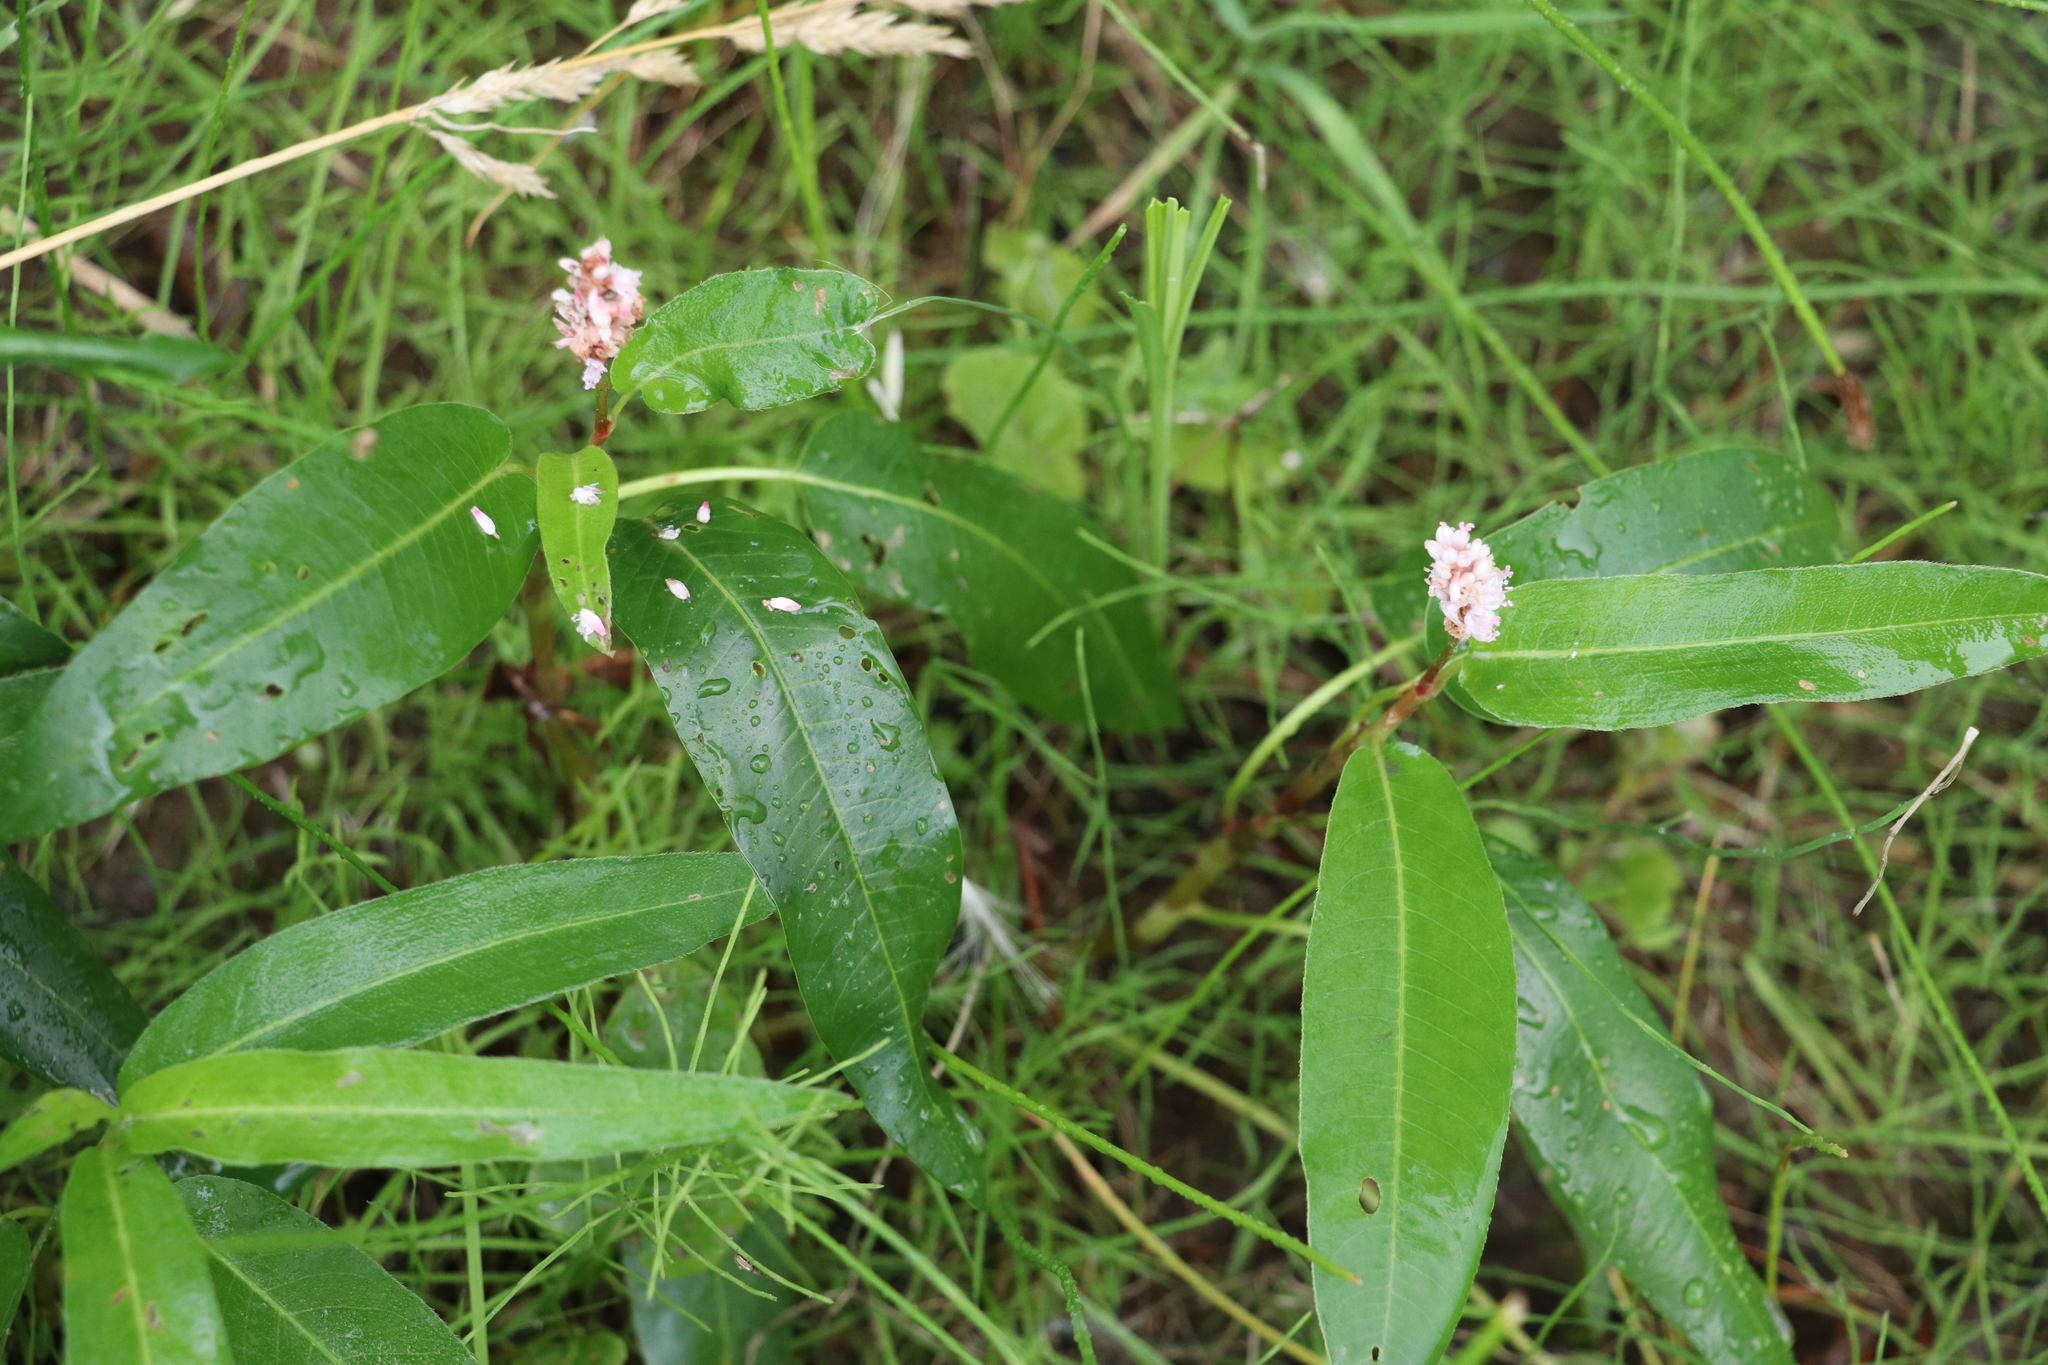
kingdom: Plantae
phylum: Tracheophyta
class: Magnoliopsida
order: Caryophyllales
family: Polygonaceae
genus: Persicaria
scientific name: Persicaria amphibia
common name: Amphibious bistort
